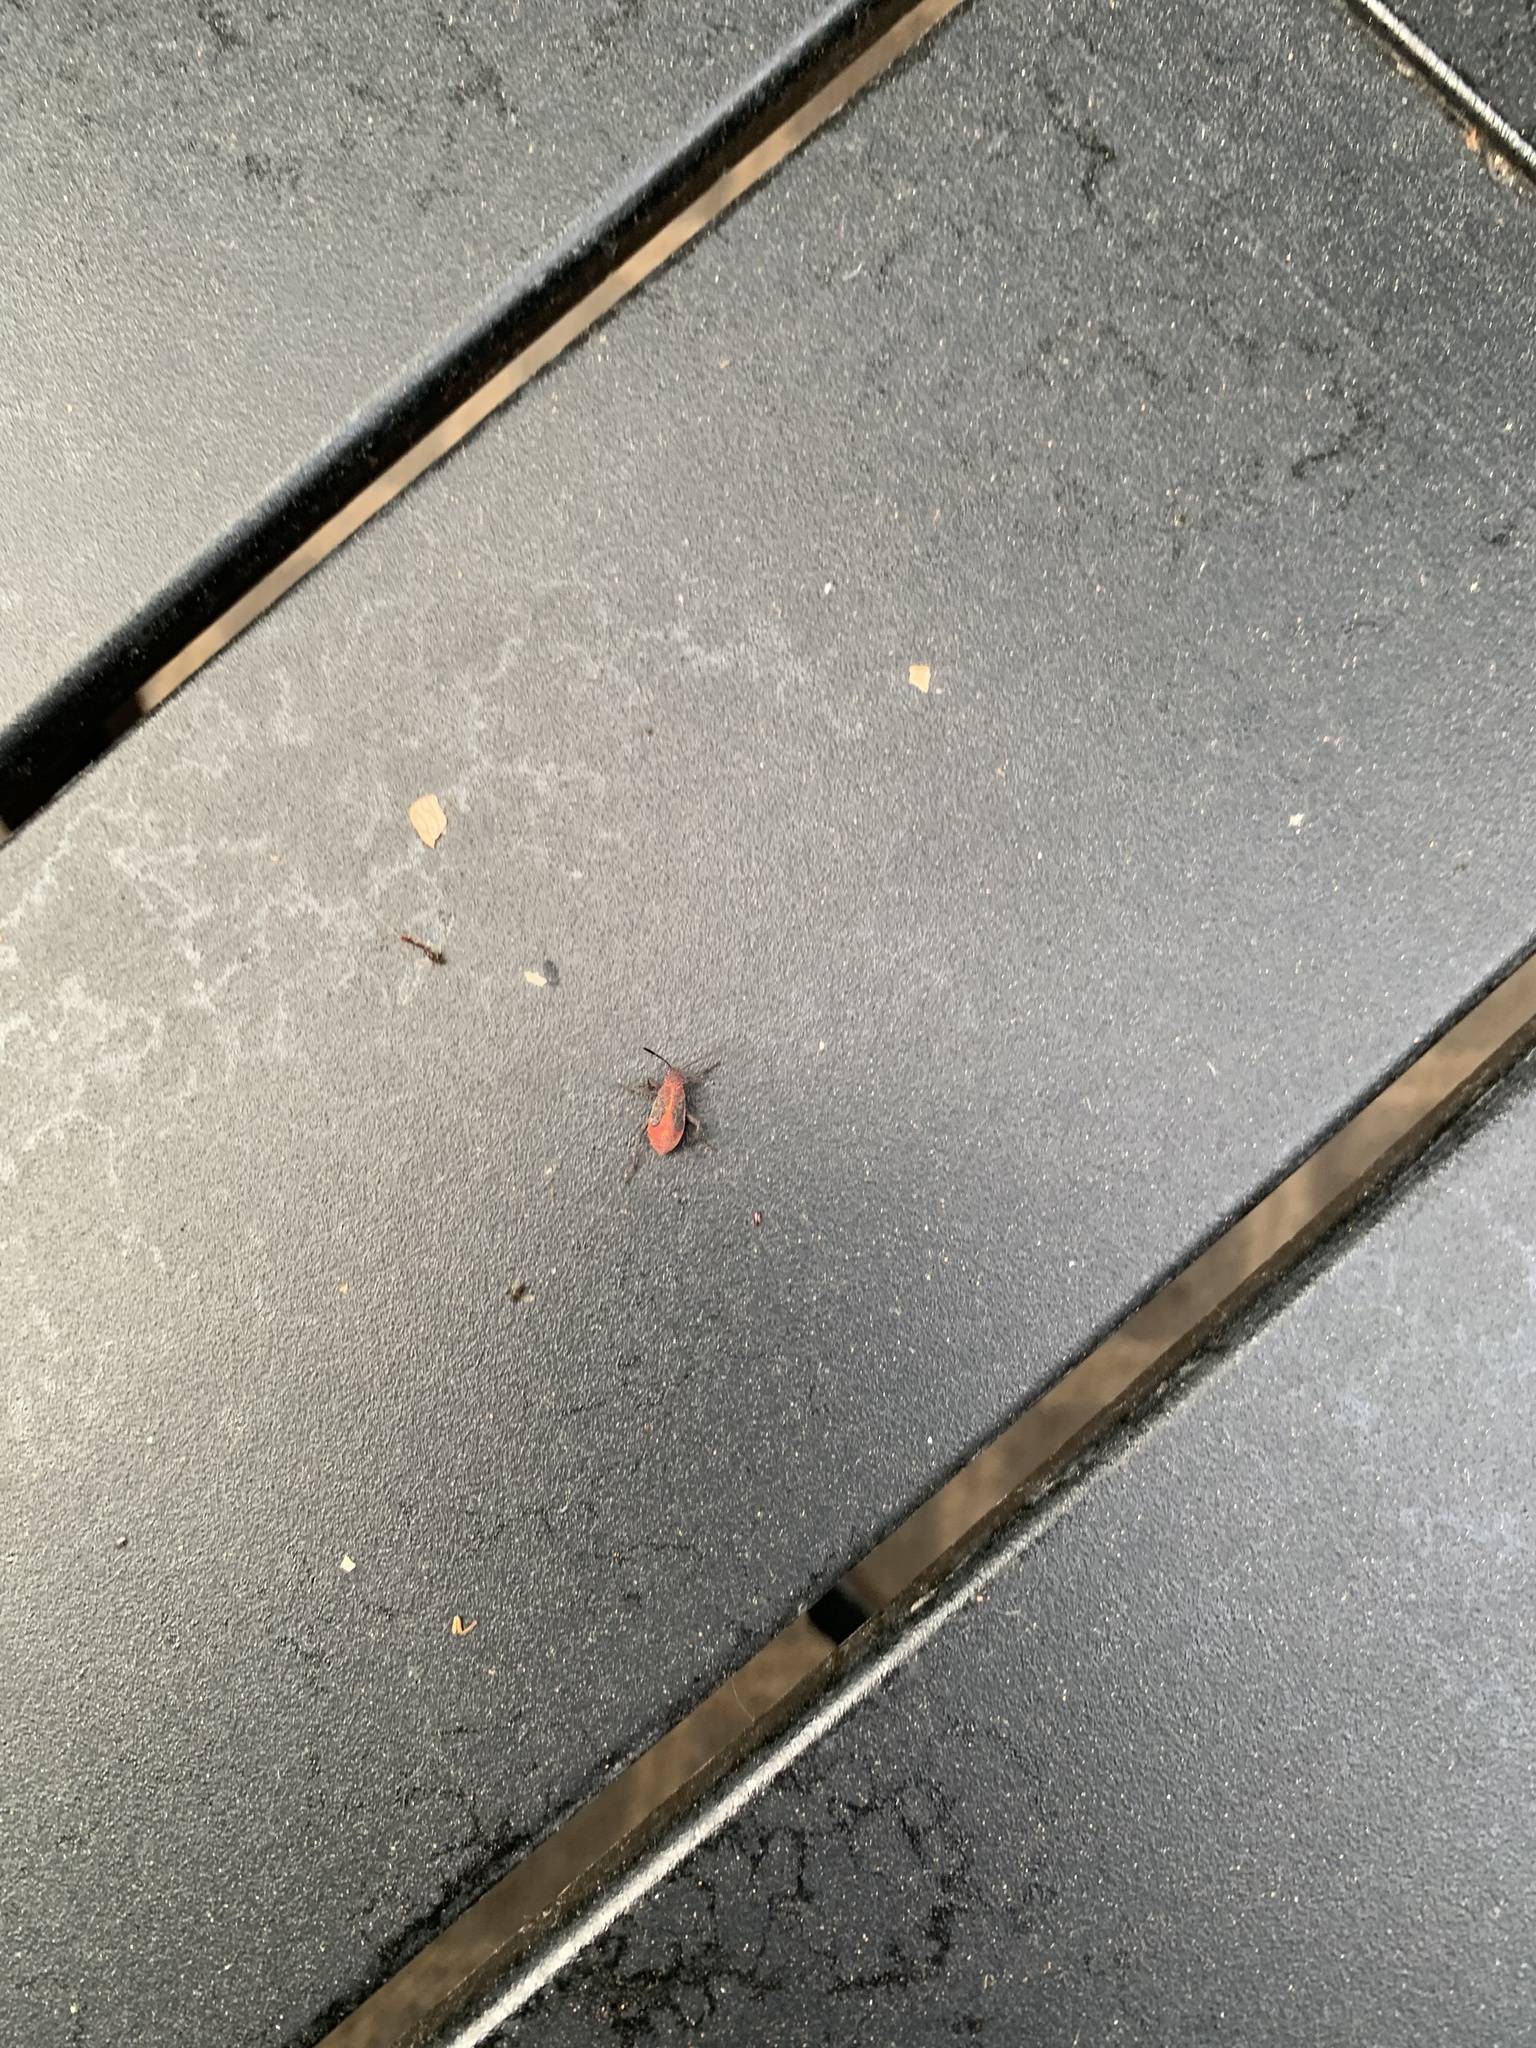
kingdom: Animalia
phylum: Arthropoda
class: Insecta
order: Hemiptera
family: Rhopalidae
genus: Boisea
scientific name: Boisea
